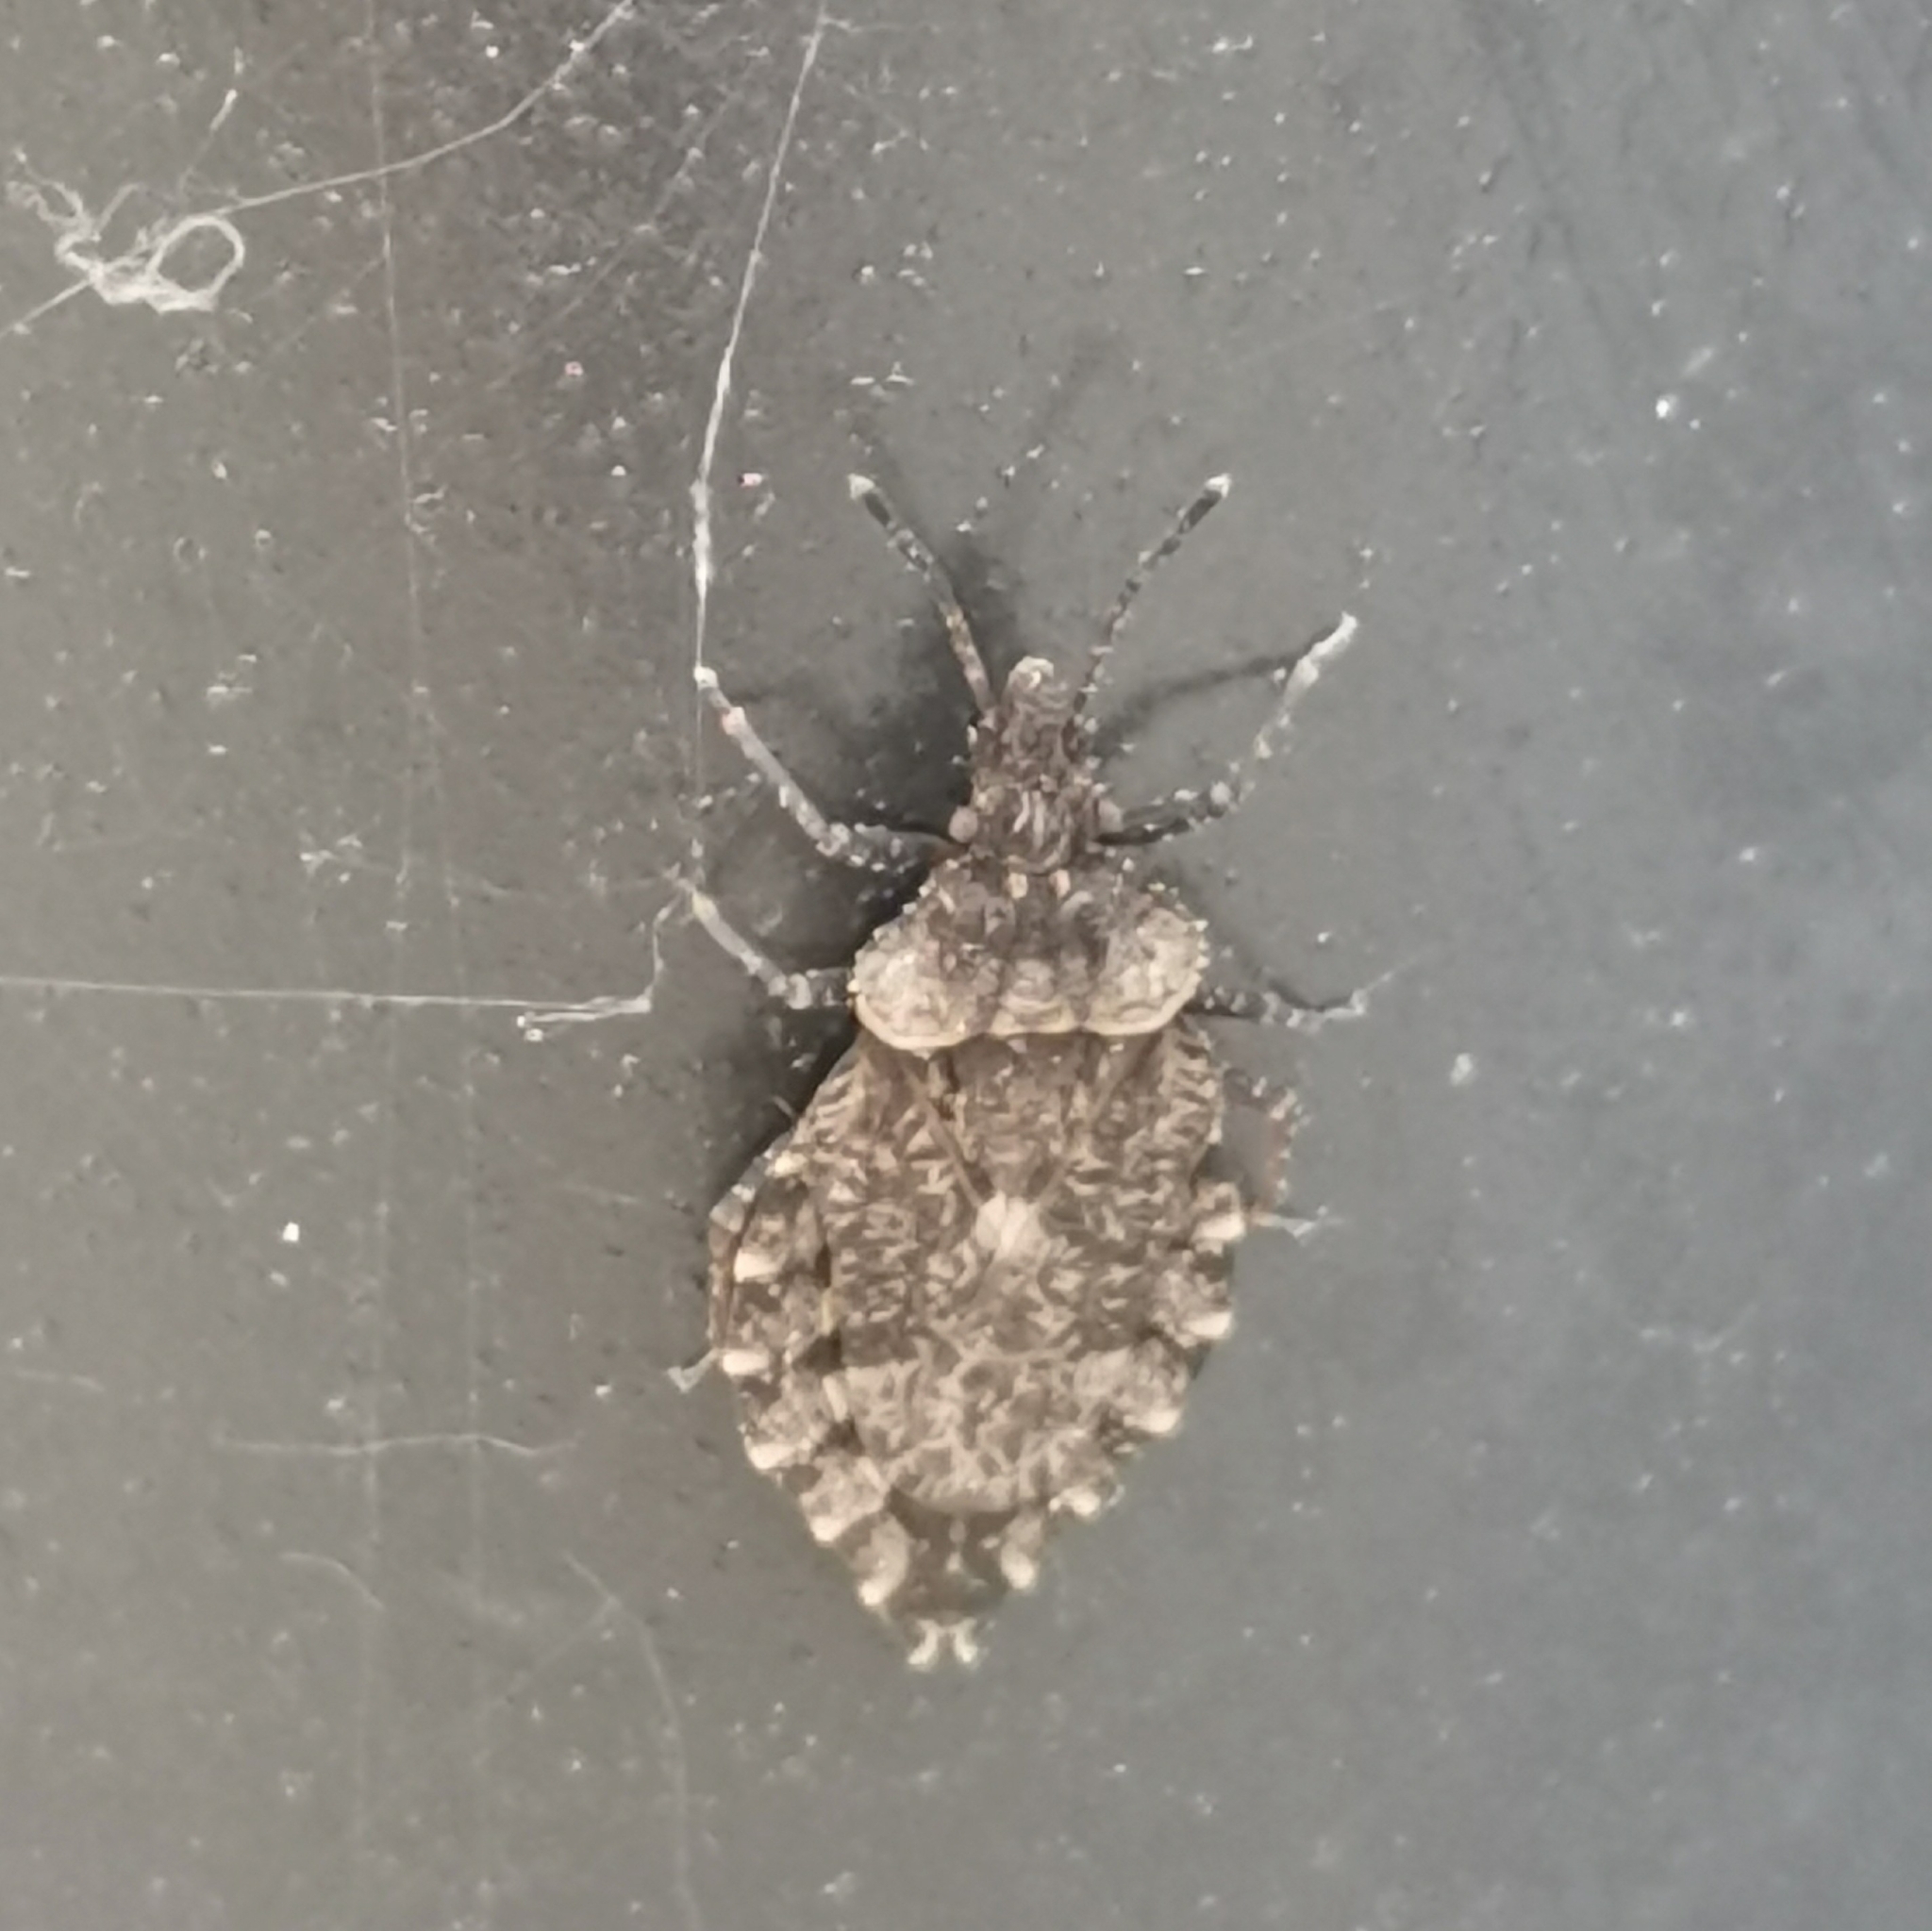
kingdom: Animalia
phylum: Arthropoda
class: Insecta
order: Hemiptera
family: Aradidae
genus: Aradus
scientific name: Aradus betulae
